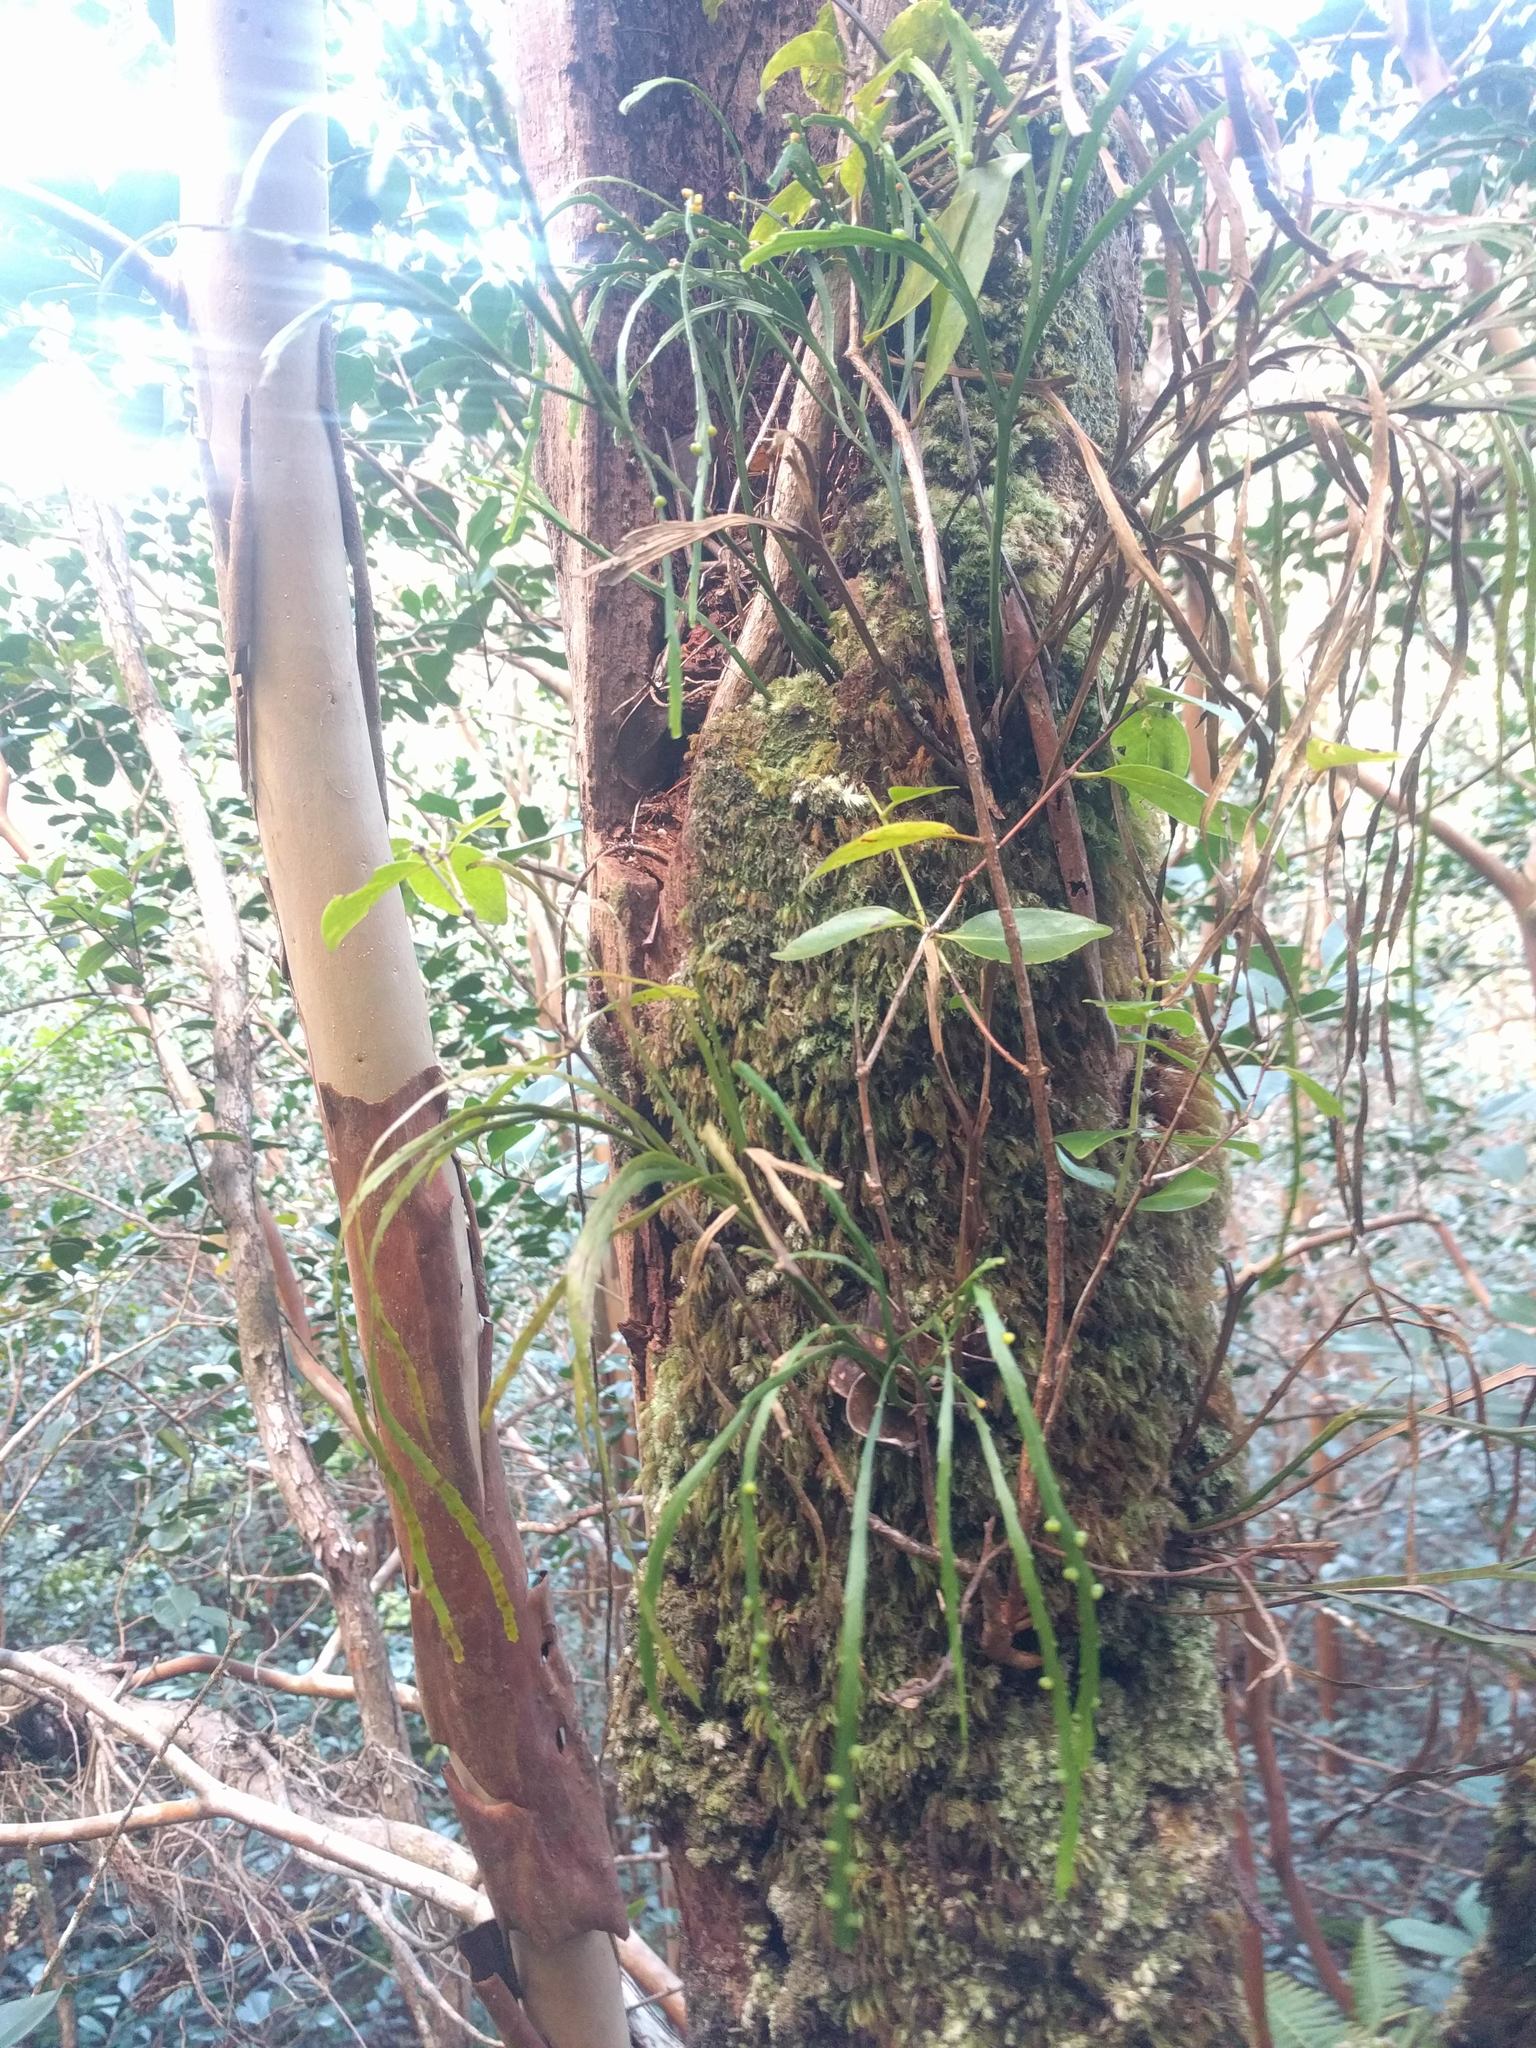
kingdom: Plantae
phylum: Tracheophyta
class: Polypodiopsida
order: Psilotales
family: Psilotaceae
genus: Psilotum
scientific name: Psilotum complanatum
